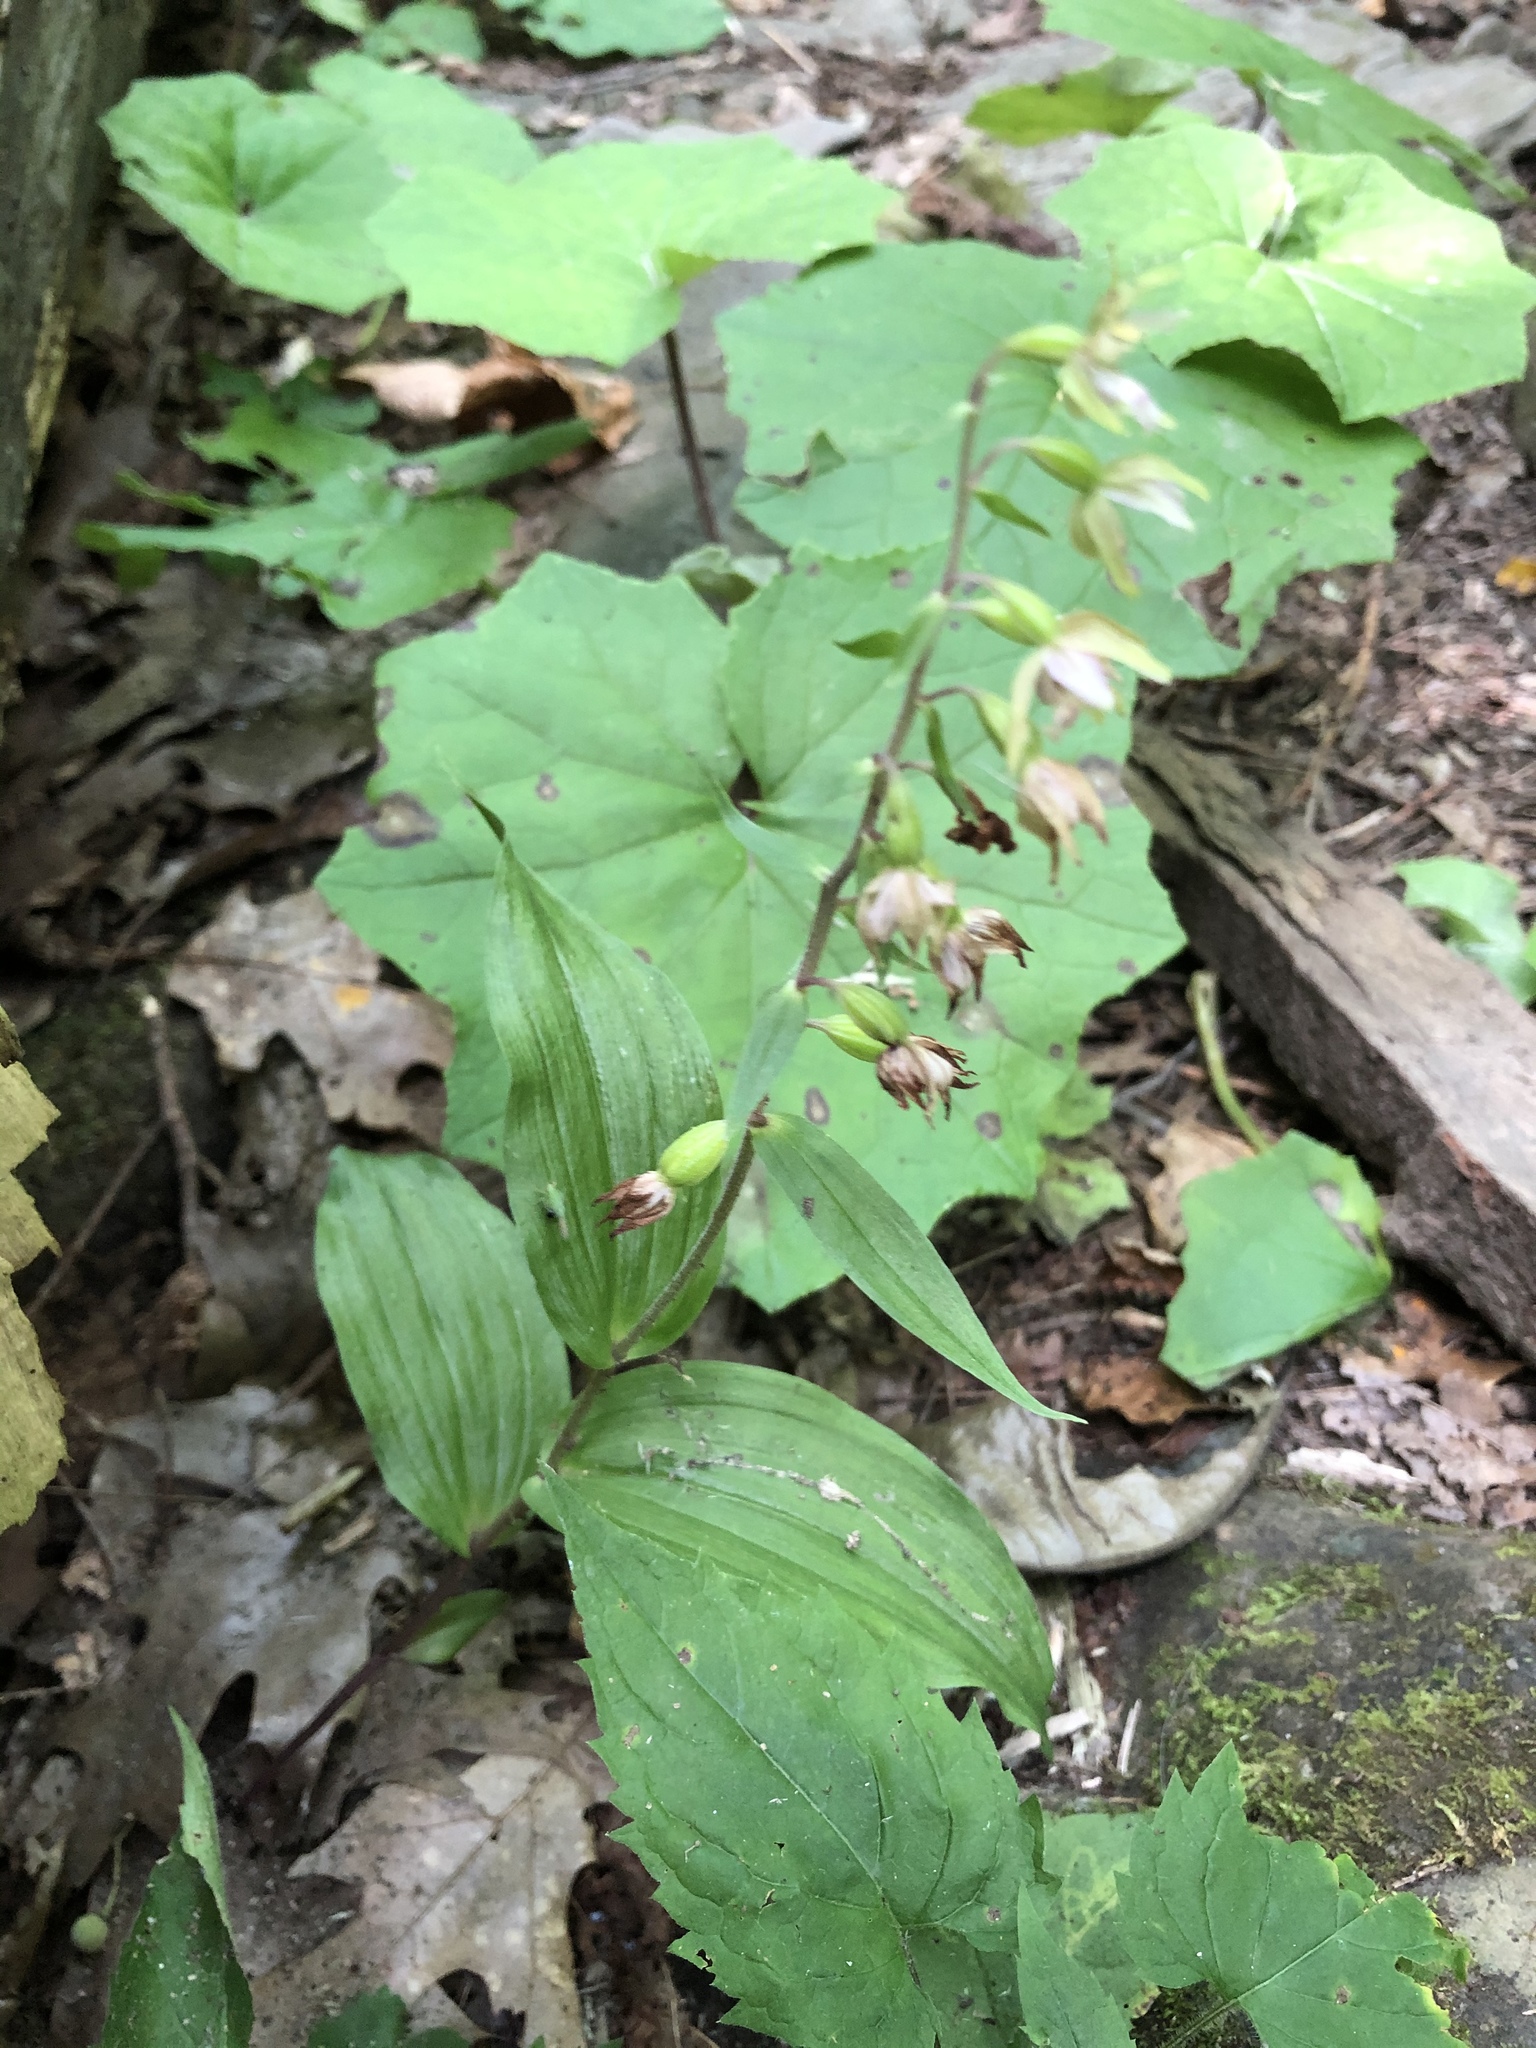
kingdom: Plantae
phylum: Tracheophyta
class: Liliopsida
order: Asparagales
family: Orchidaceae
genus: Epipactis
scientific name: Epipactis helleborine
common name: Broad-leaved helleborine
